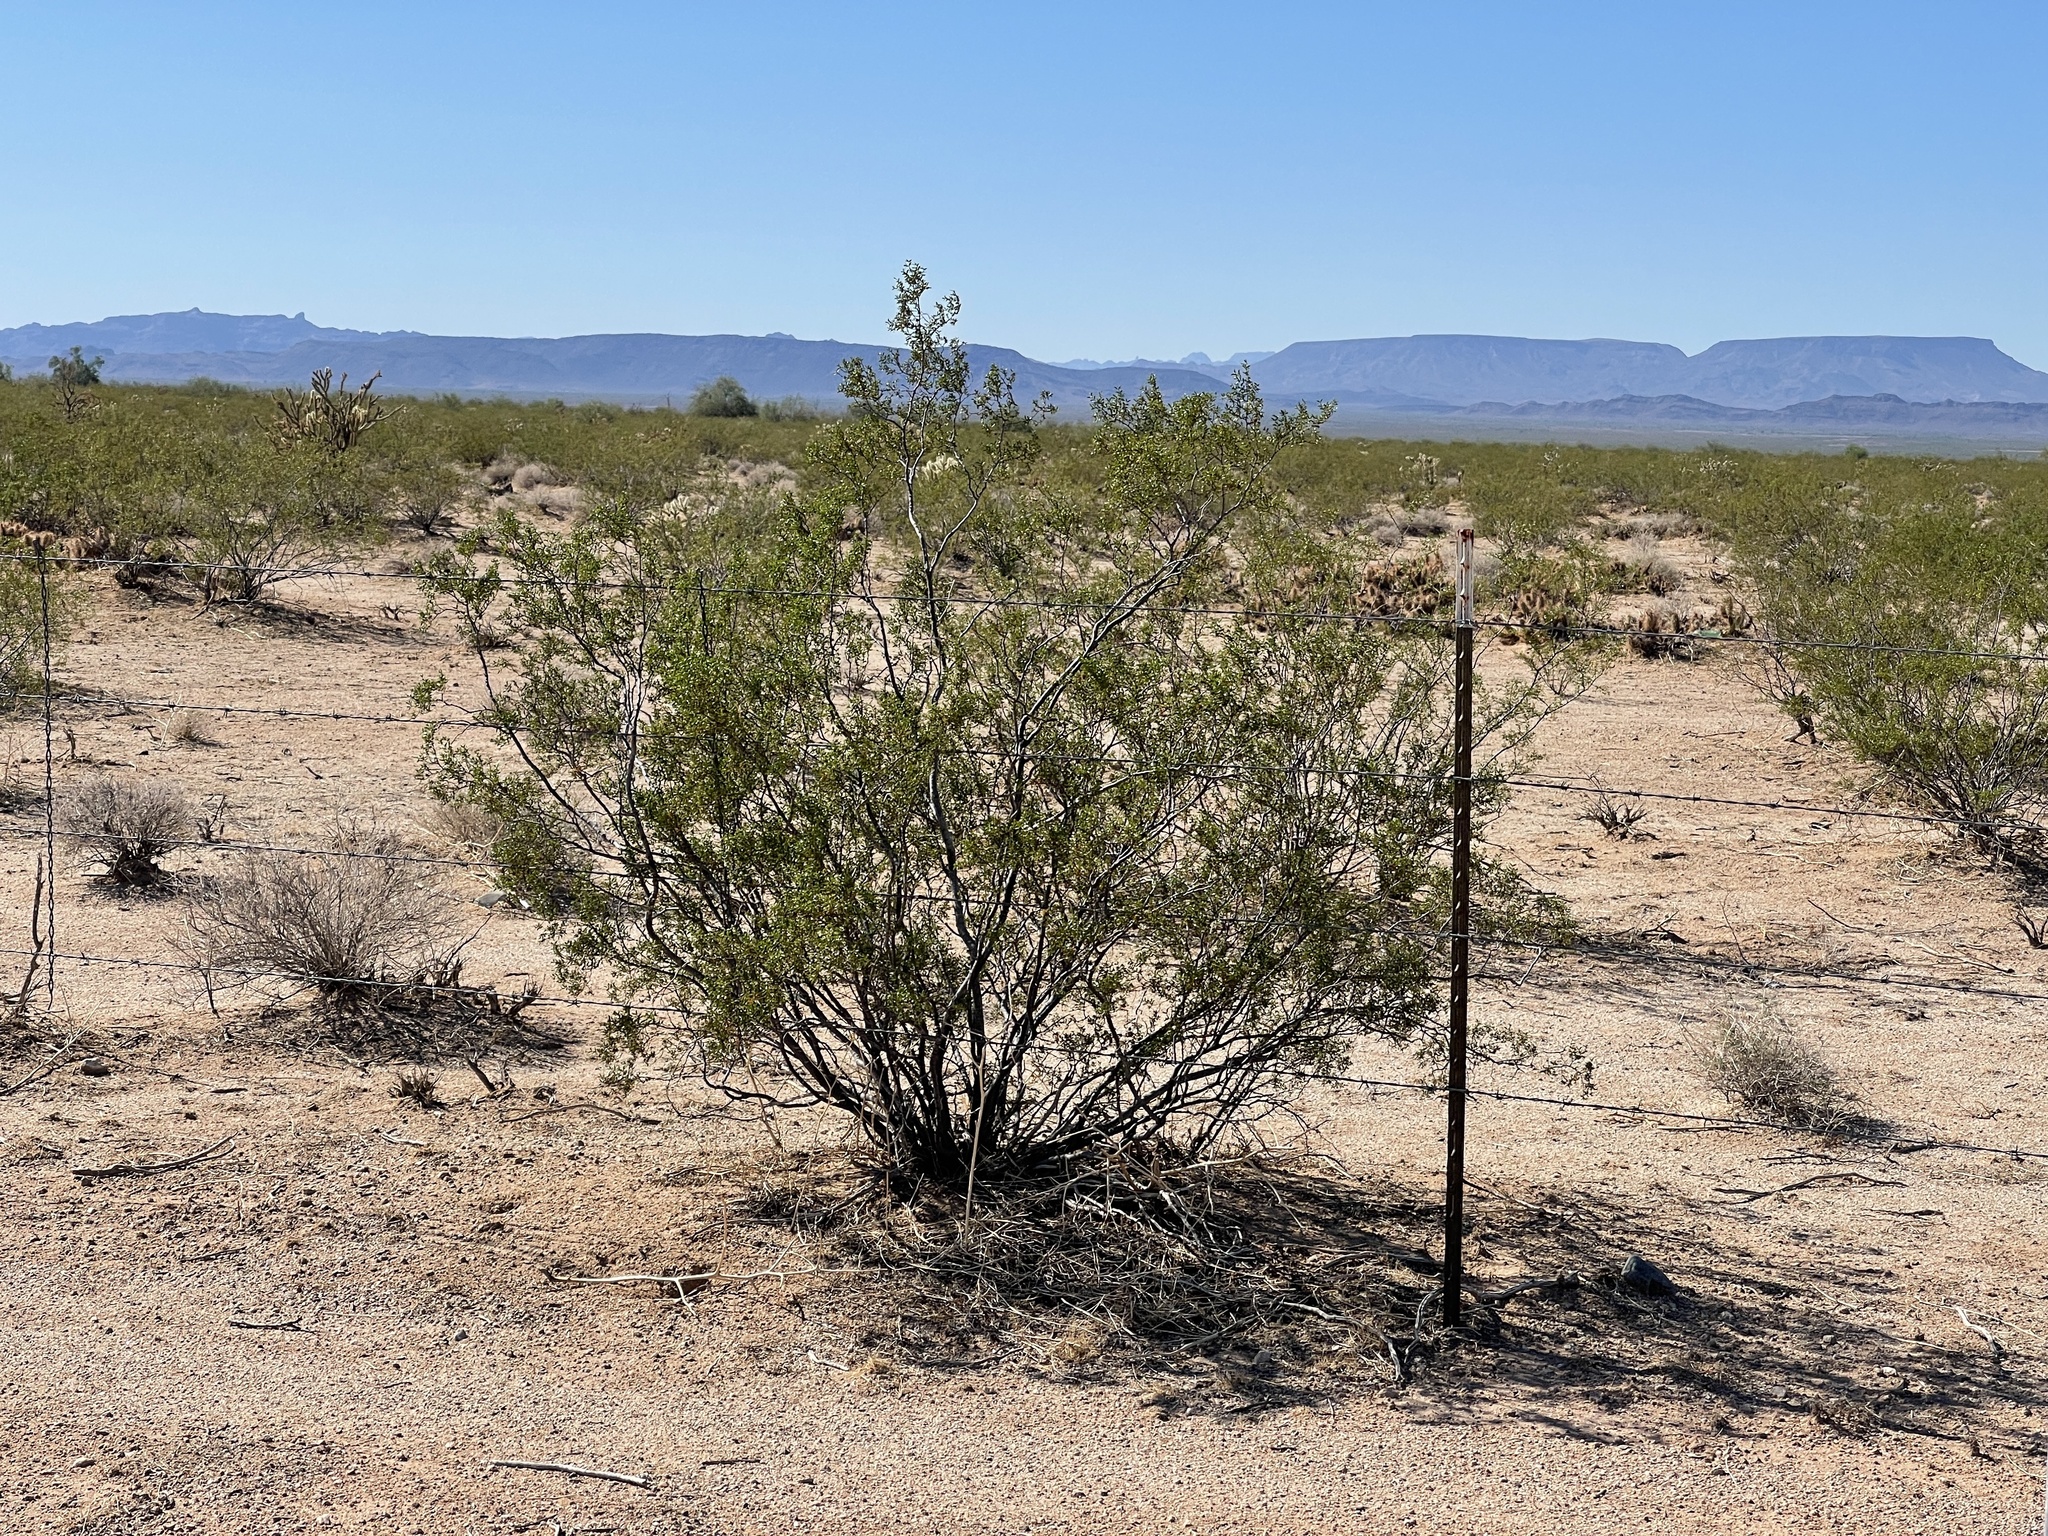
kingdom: Plantae
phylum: Tracheophyta
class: Magnoliopsida
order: Zygophyllales
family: Zygophyllaceae
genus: Larrea
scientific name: Larrea tridentata
